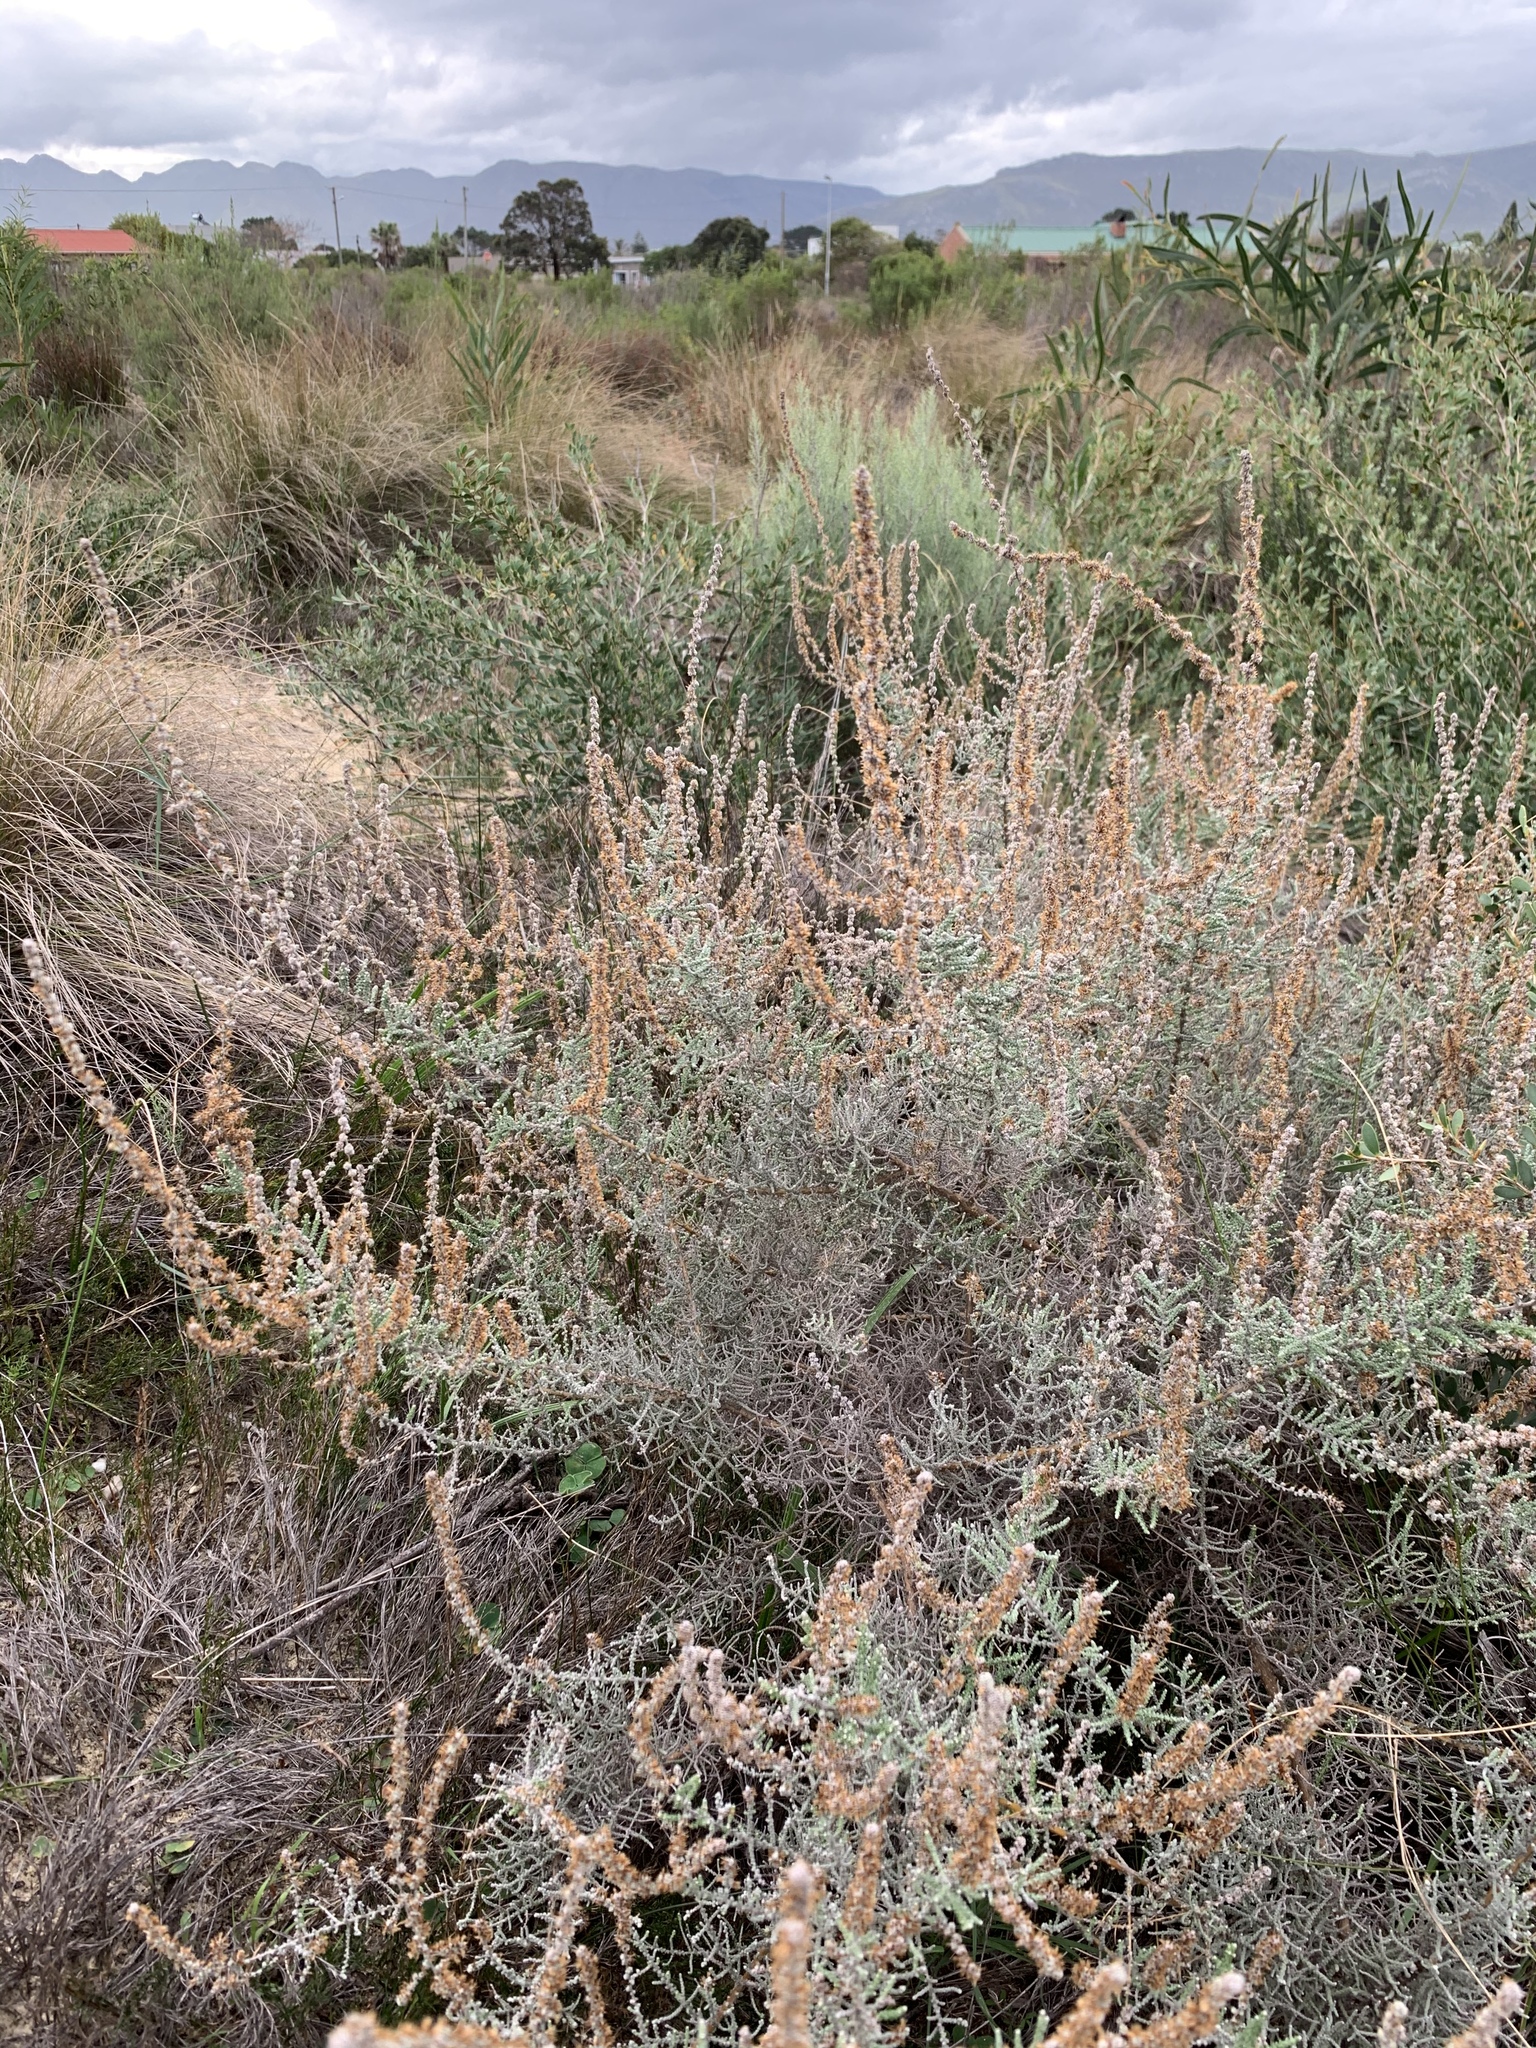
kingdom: Plantae
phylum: Tracheophyta
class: Magnoliopsida
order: Asterales
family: Asteraceae
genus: Seriphium
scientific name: Seriphium plumosum
